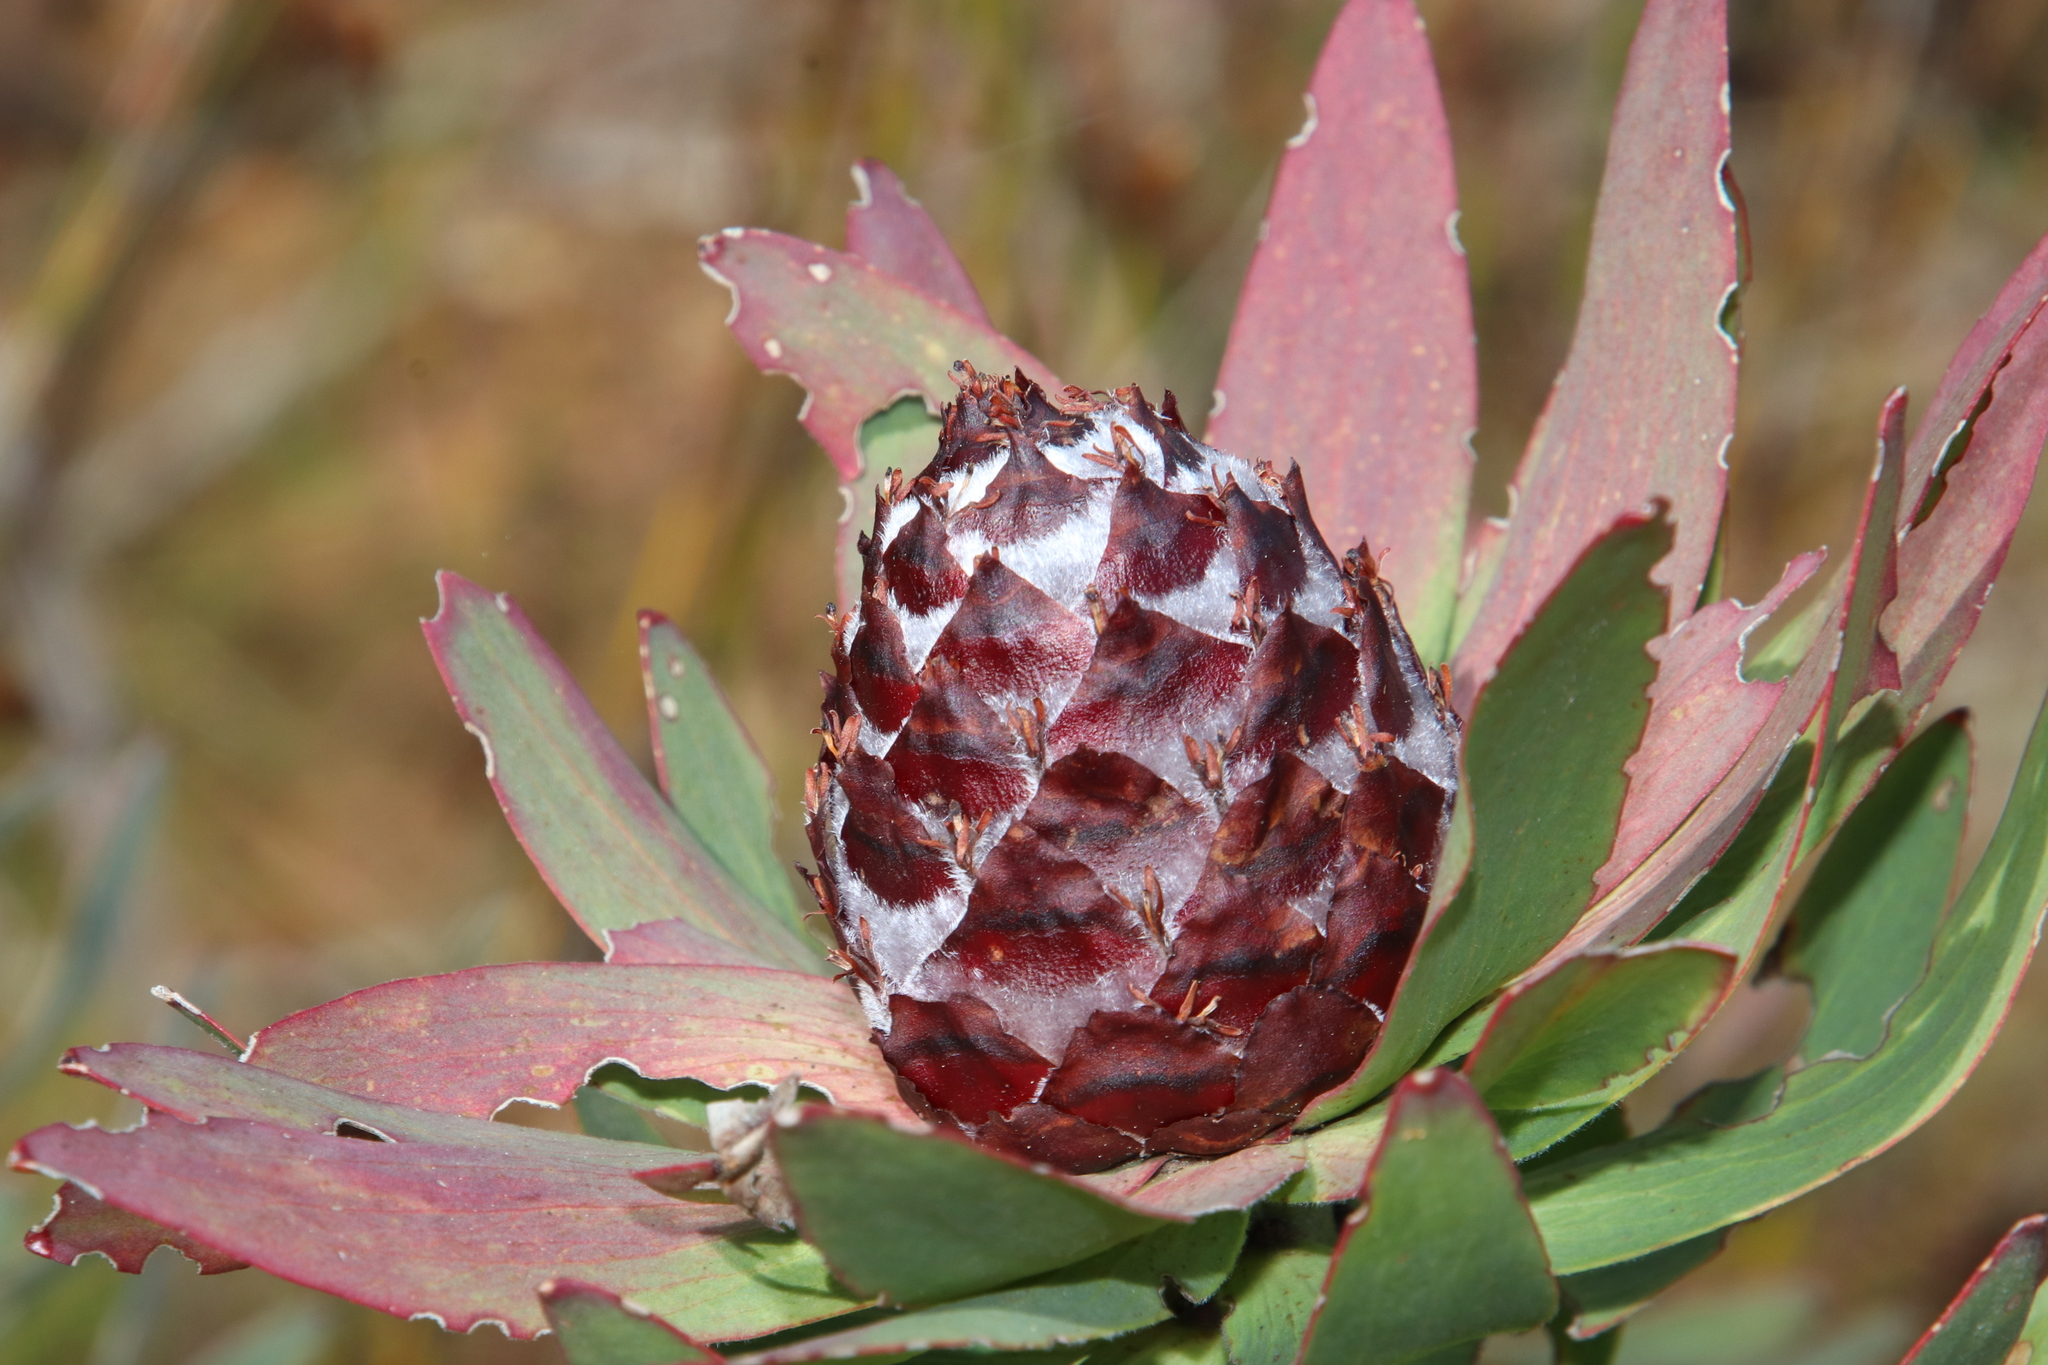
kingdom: Plantae
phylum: Tracheophyta
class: Magnoliopsida
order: Proteales
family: Proteaceae
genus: Leucadendron
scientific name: Leucadendron sessile
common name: Western sunbush
